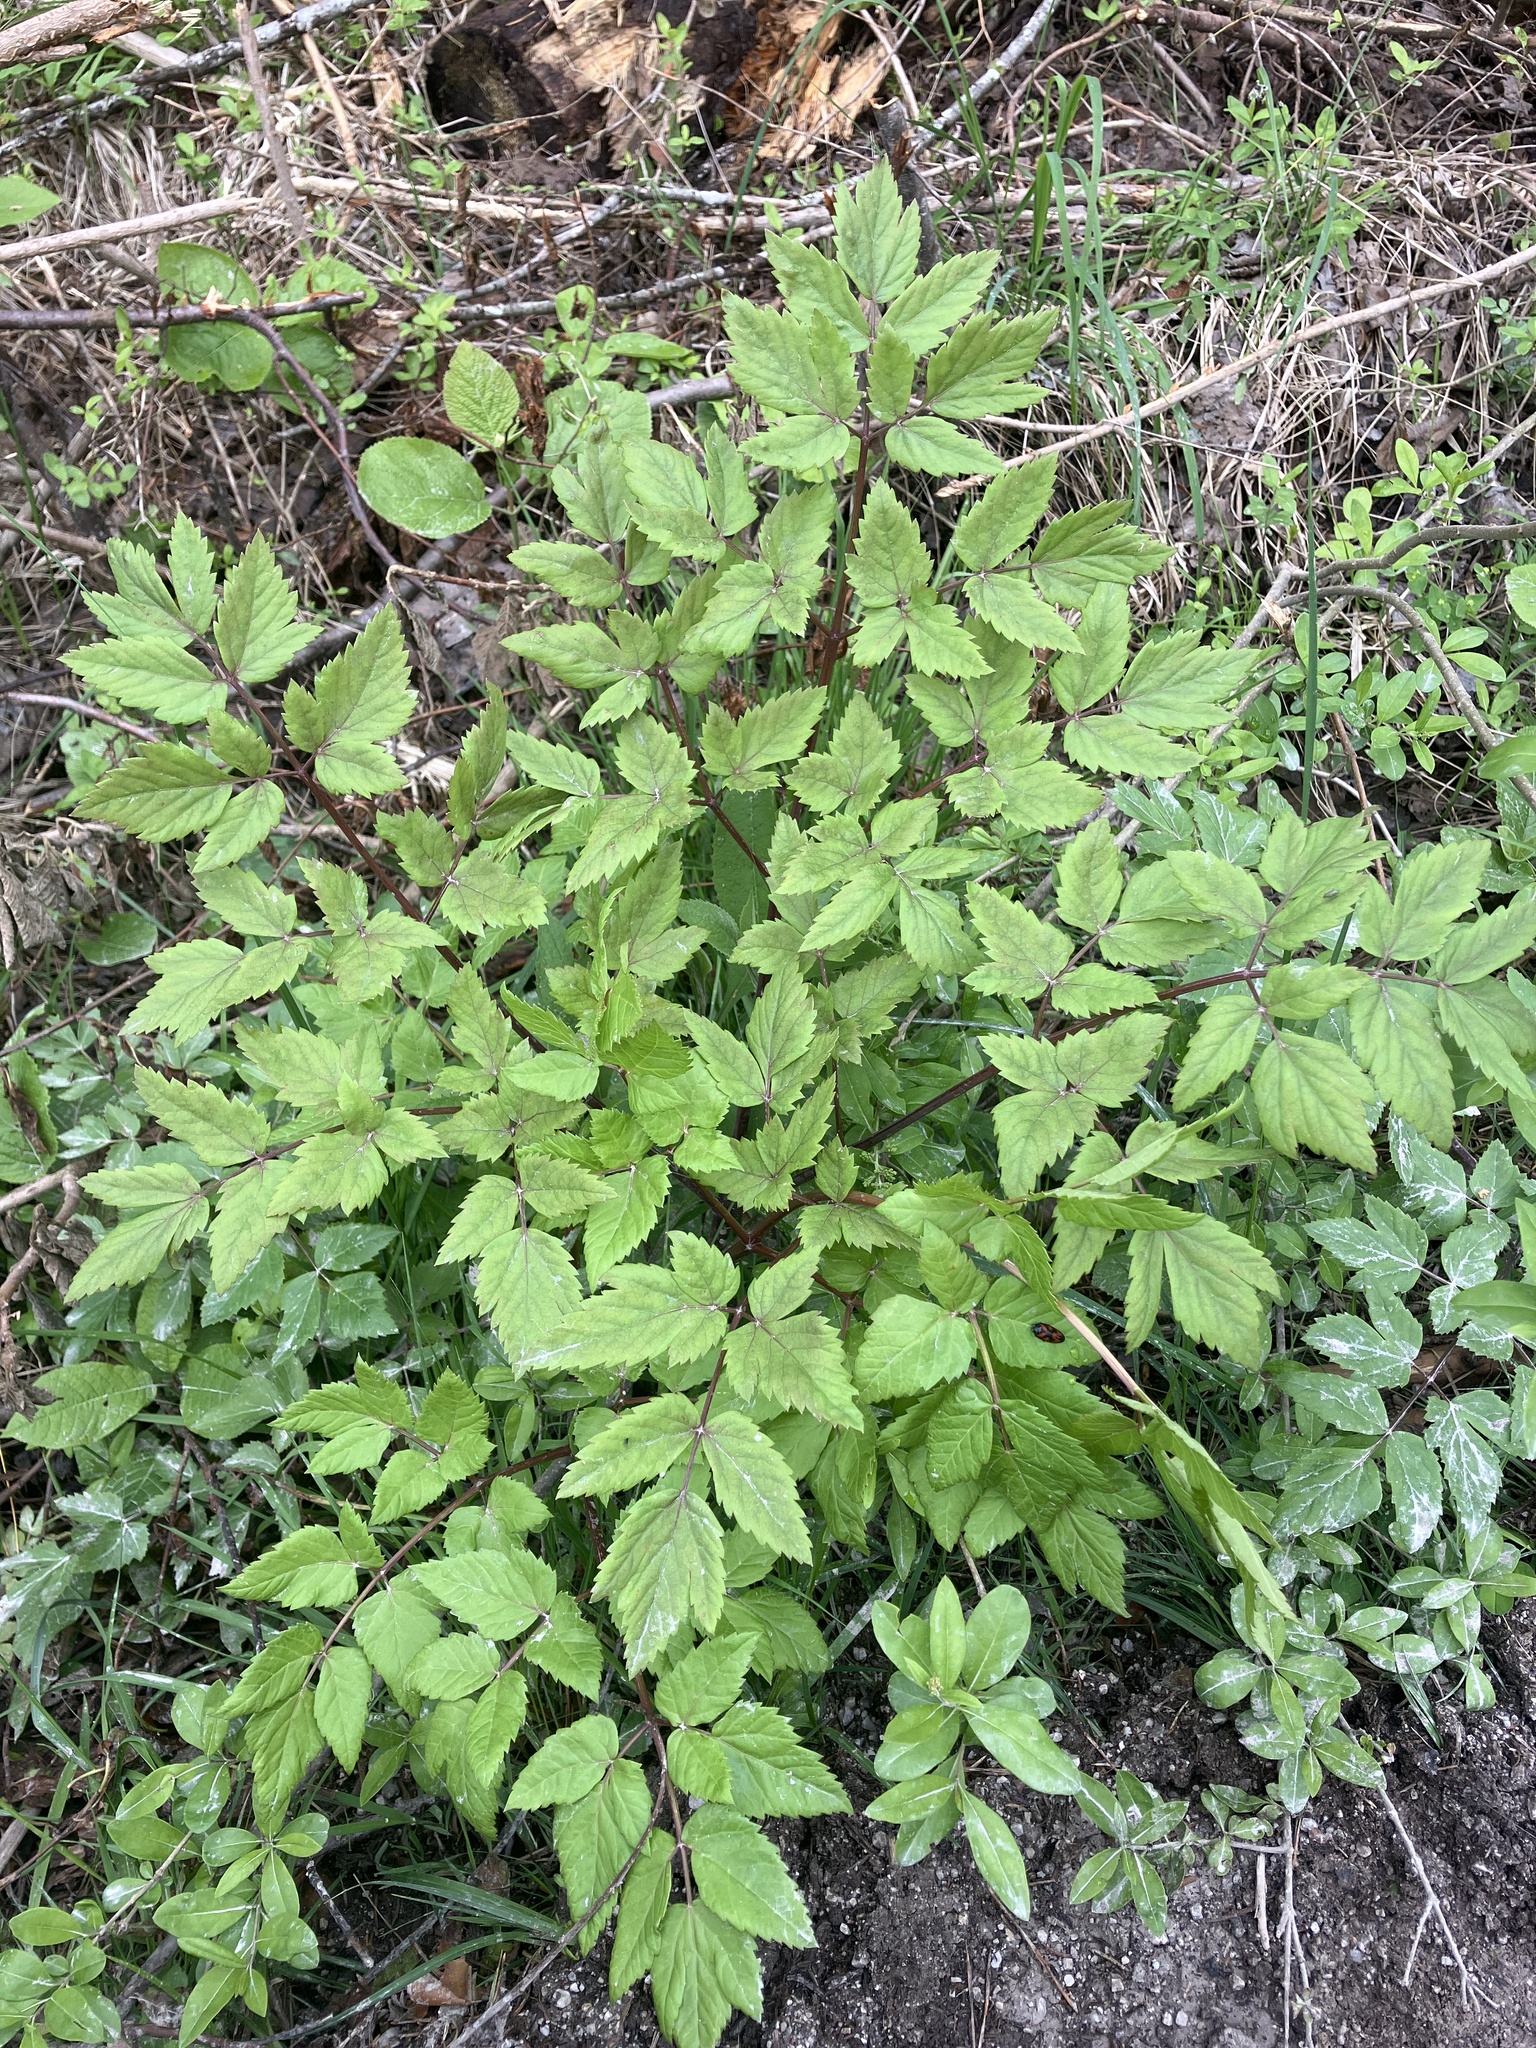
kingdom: Plantae
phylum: Tracheophyta
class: Magnoliopsida
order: Apiales
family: Apiaceae
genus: Peucedanum
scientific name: Peucedanum verticillare
